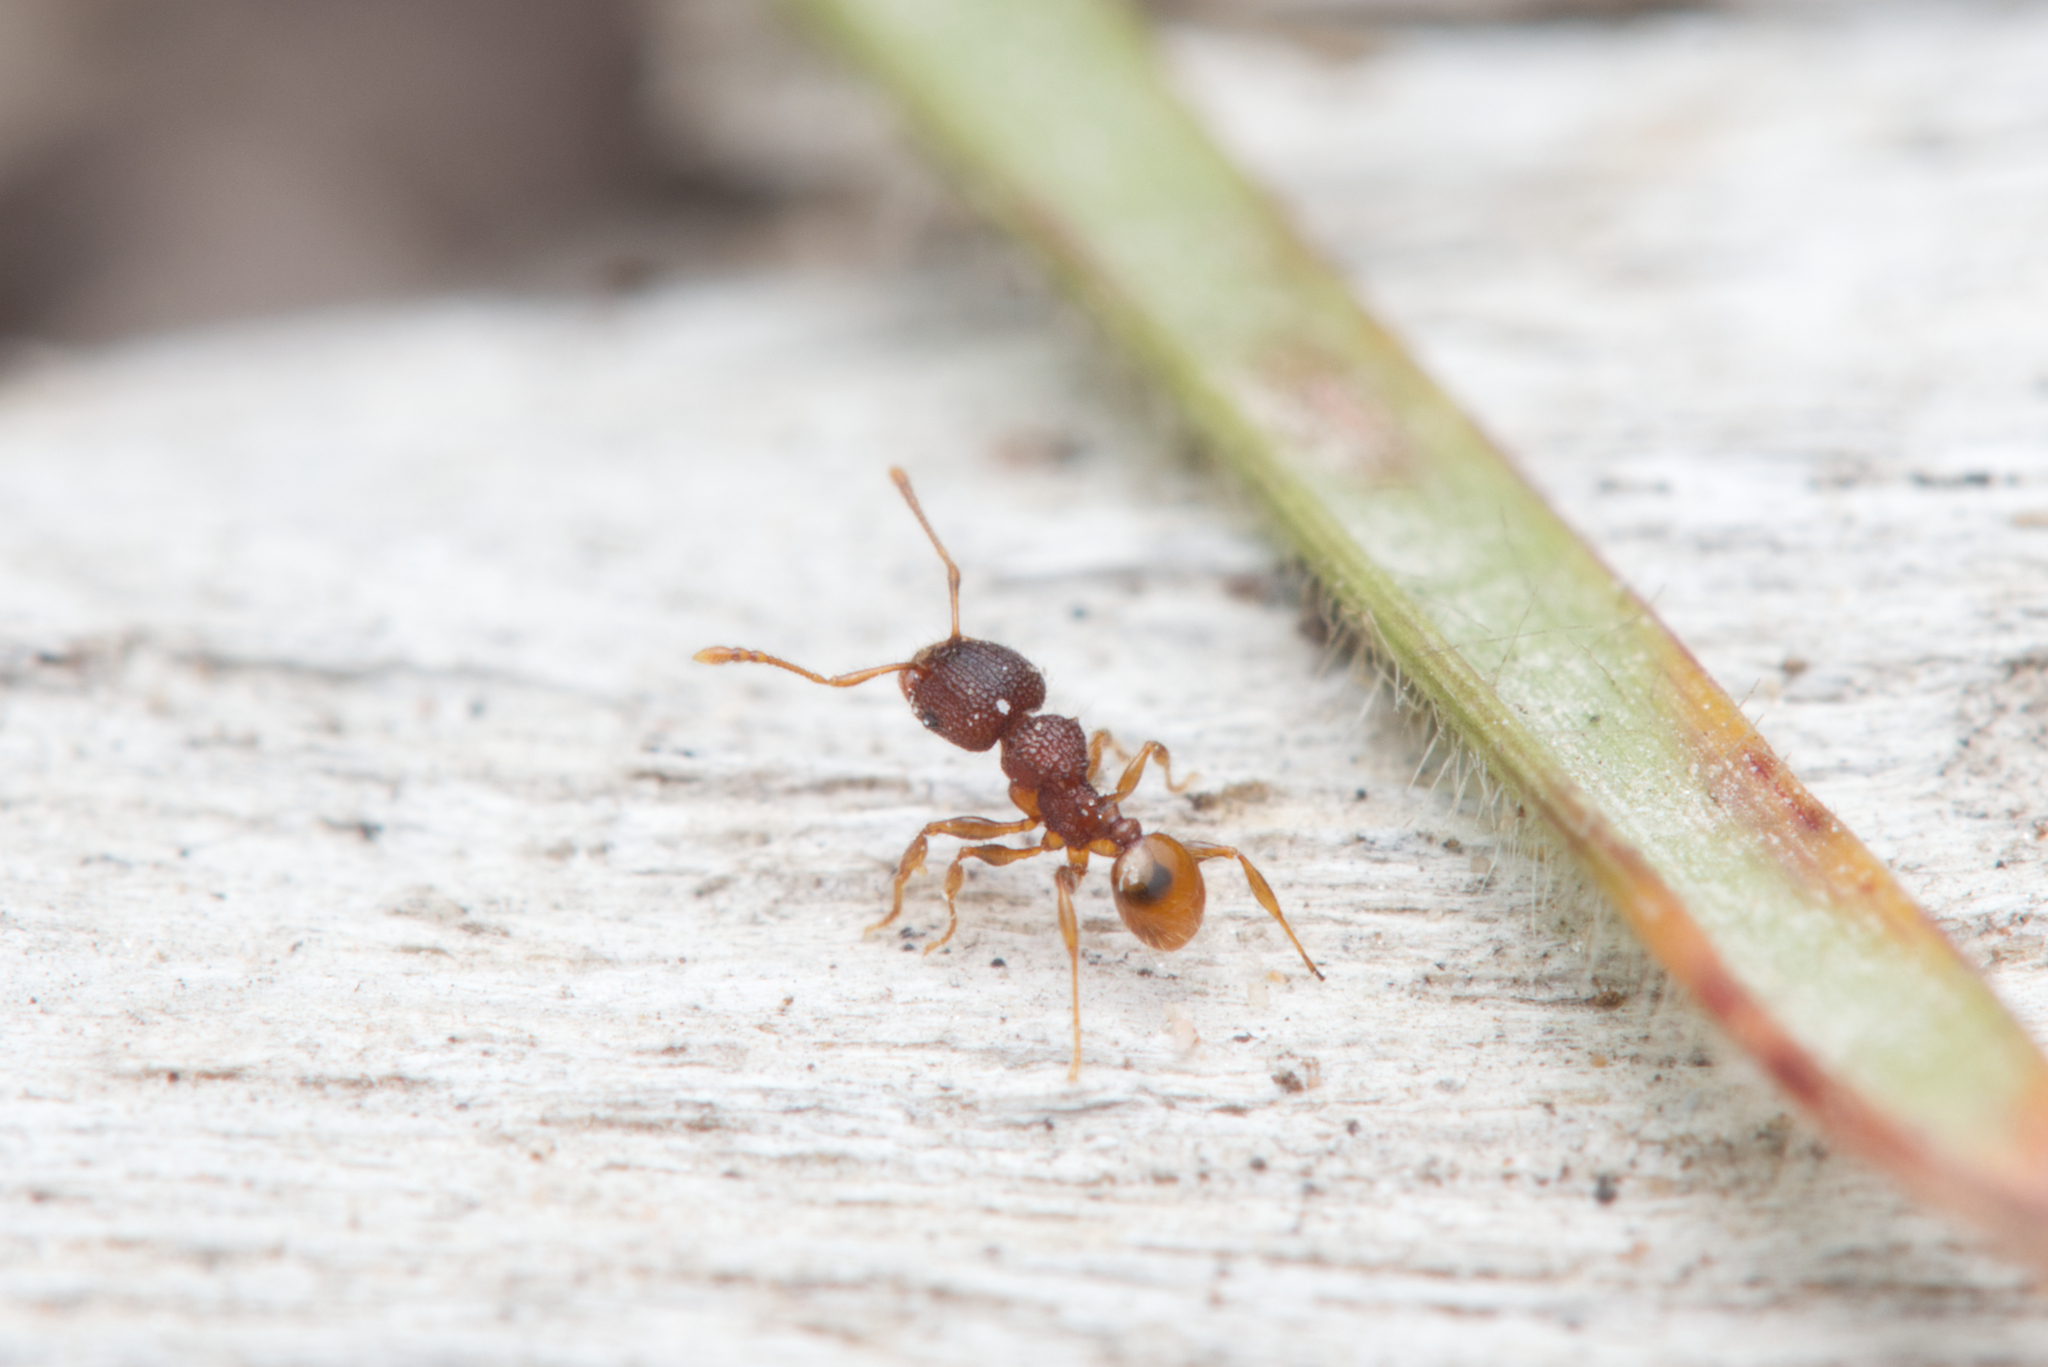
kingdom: Animalia
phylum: Arthropoda
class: Insecta
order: Hymenoptera
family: Formicidae
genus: Pheidole
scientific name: Pheidole longiceps
